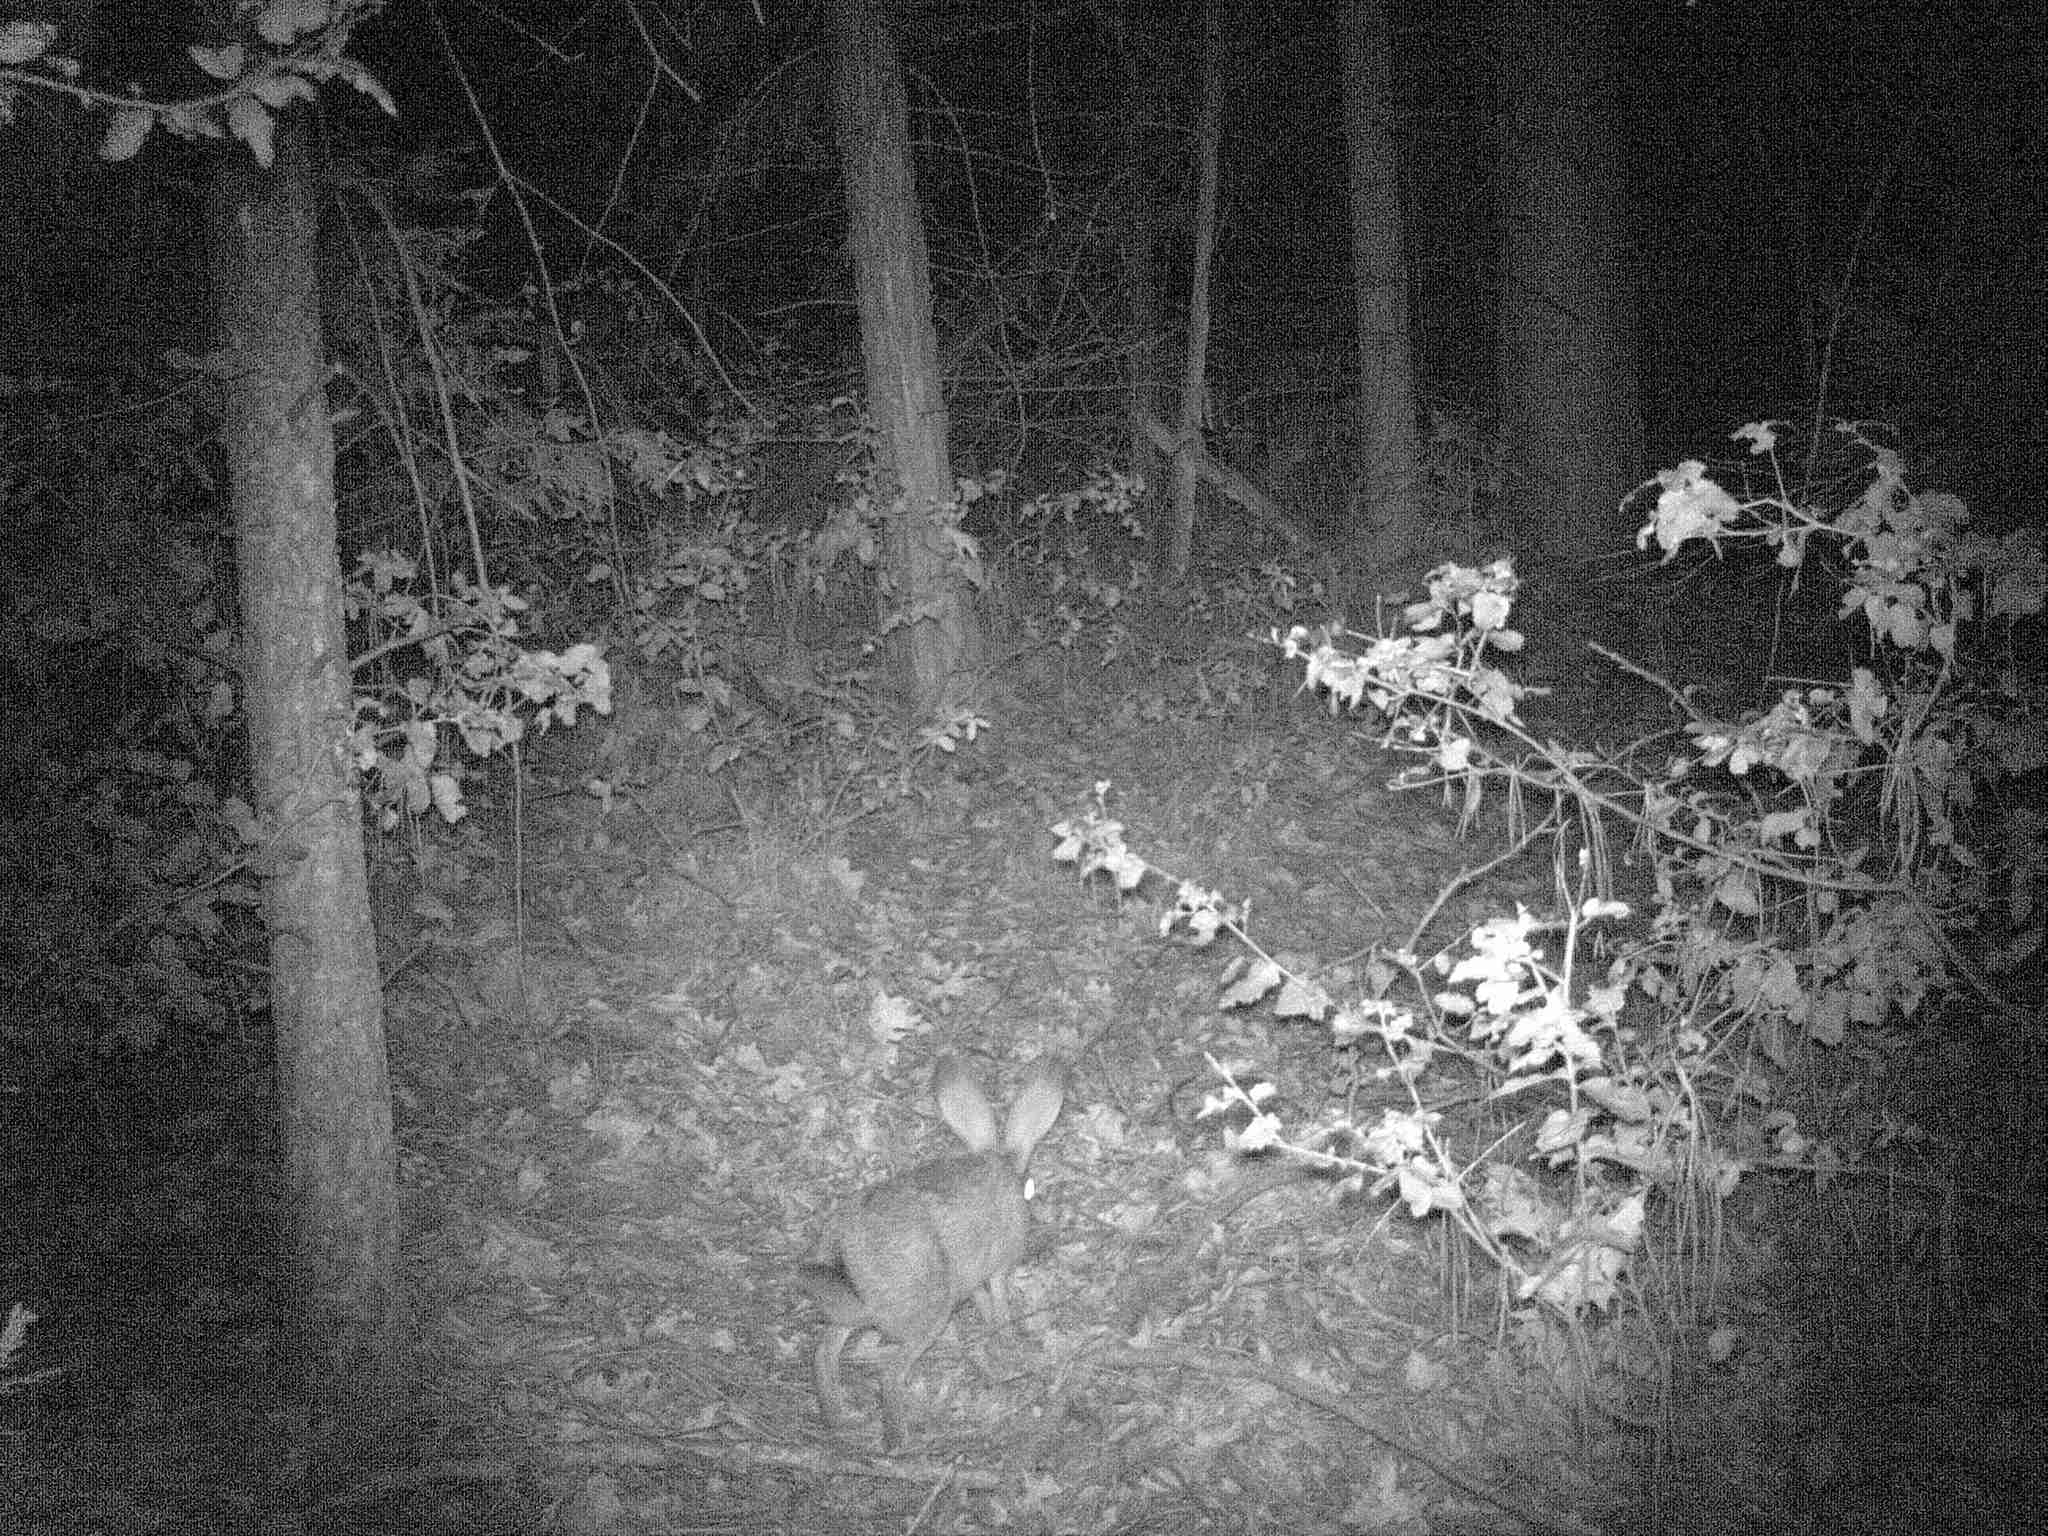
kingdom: Animalia
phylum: Chordata
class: Mammalia
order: Lagomorpha
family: Leporidae
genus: Lepus
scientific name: Lepus californicus
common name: Black-tailed jackrabbit
